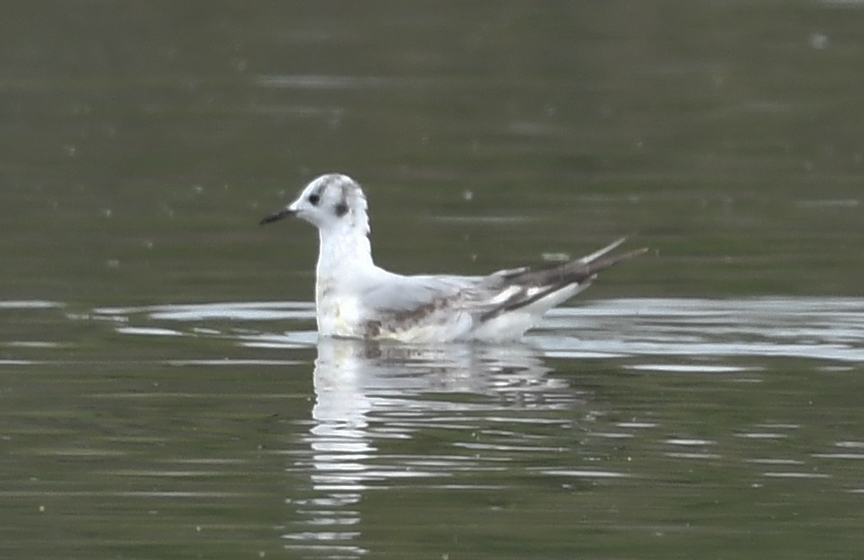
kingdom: Animalia
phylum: Chordata
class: Aves
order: Charadriiformes
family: Laridae
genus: Chroicocephalus
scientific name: Chroicocephalus philadelphia
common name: Bonaparte's gull
